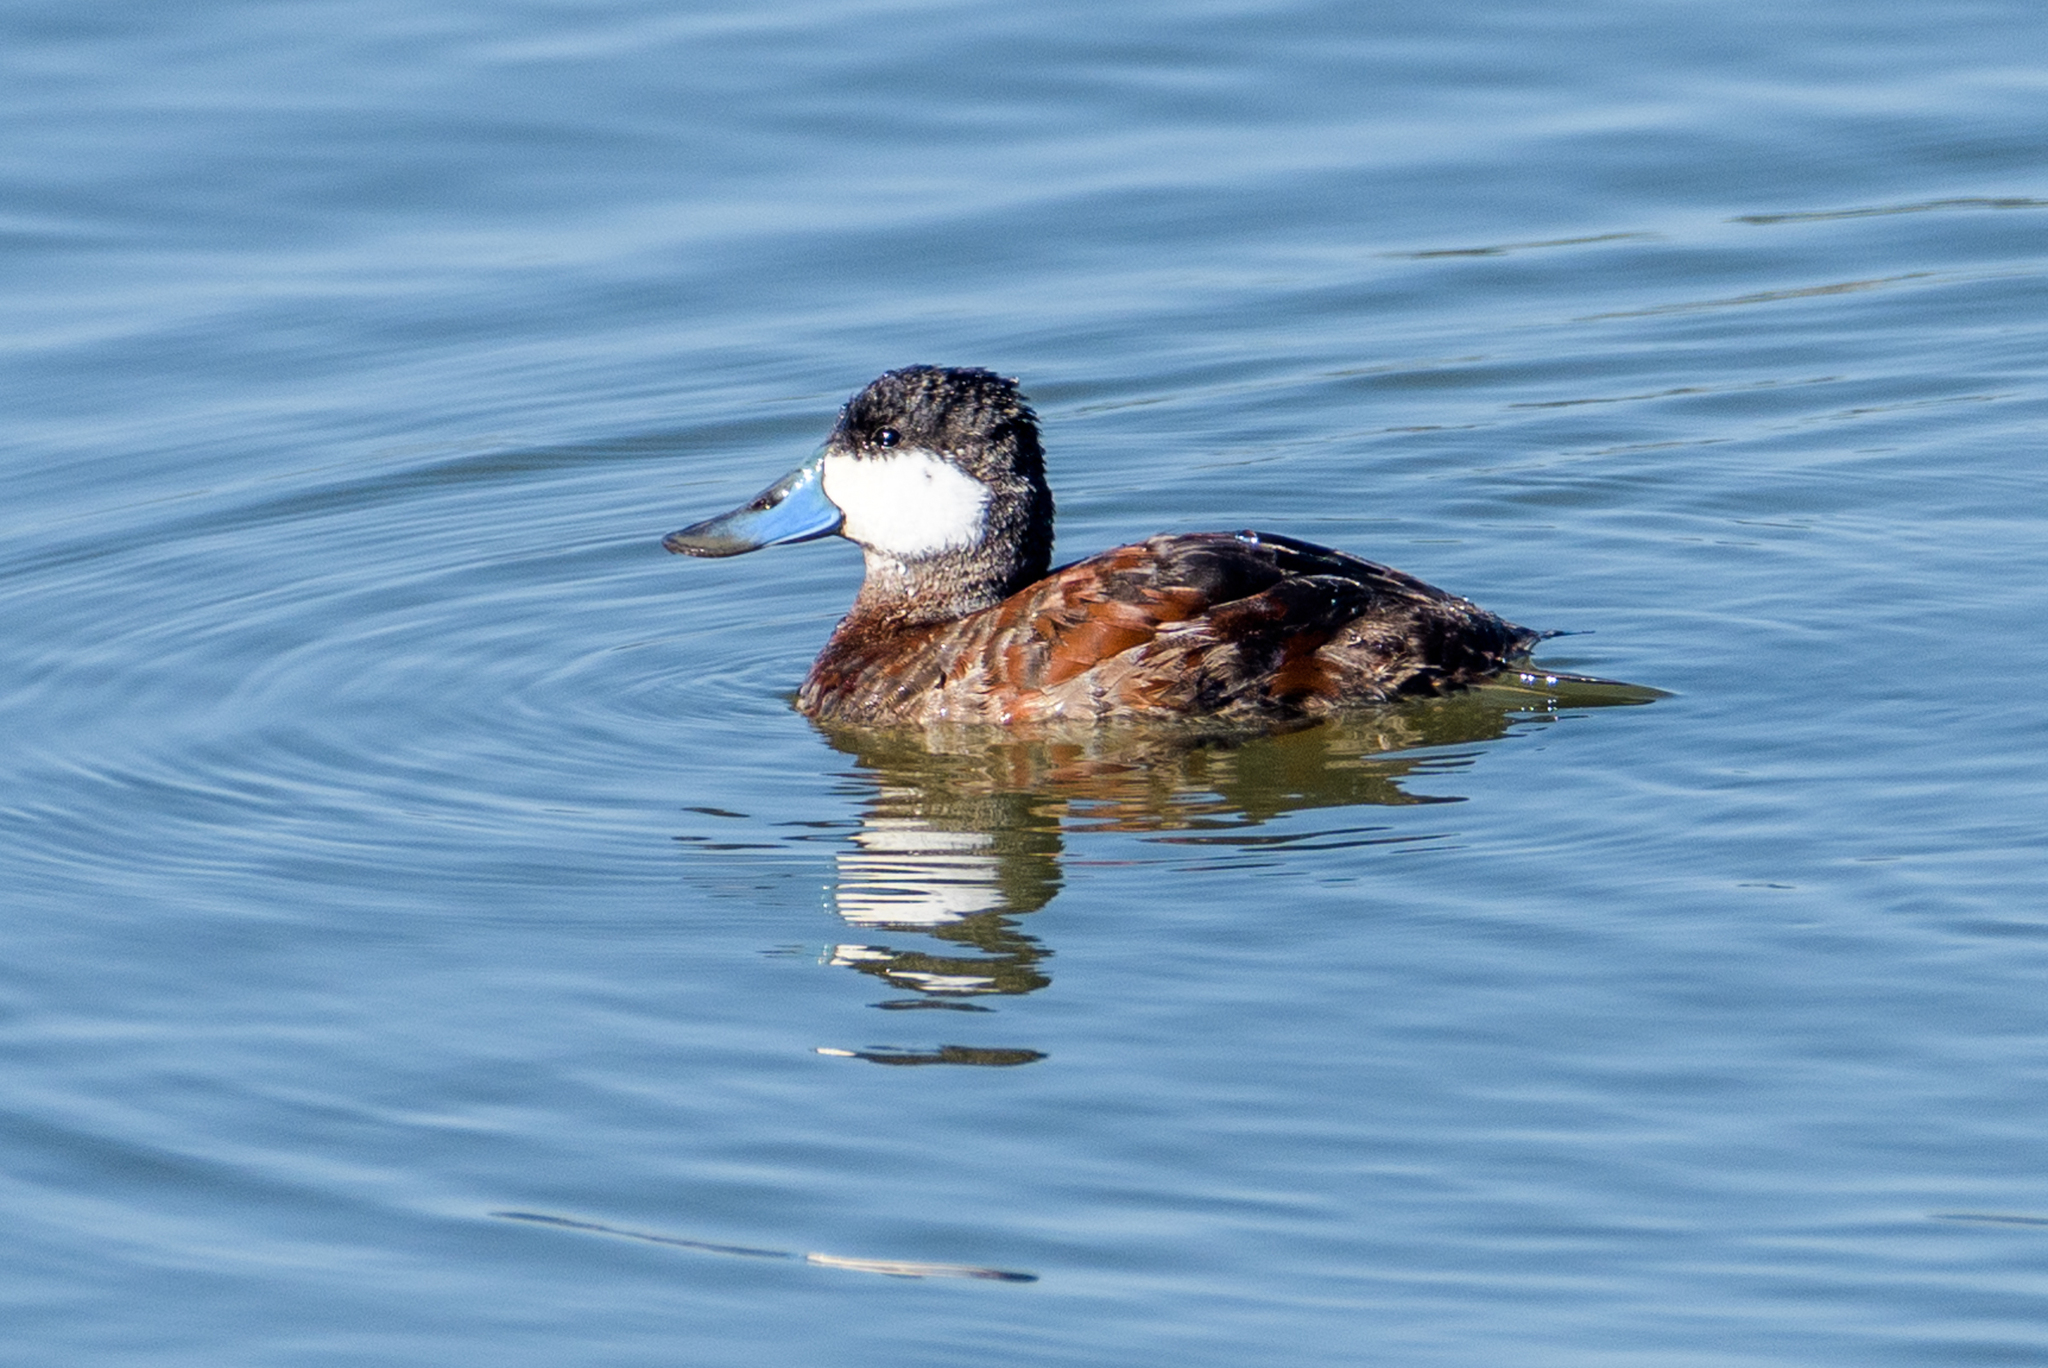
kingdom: Animalia
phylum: Chordata
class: Aves
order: Anseriformes
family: Anatidae
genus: Oxyura
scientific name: Oxyura jamaicensis
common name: Ruddy duck
